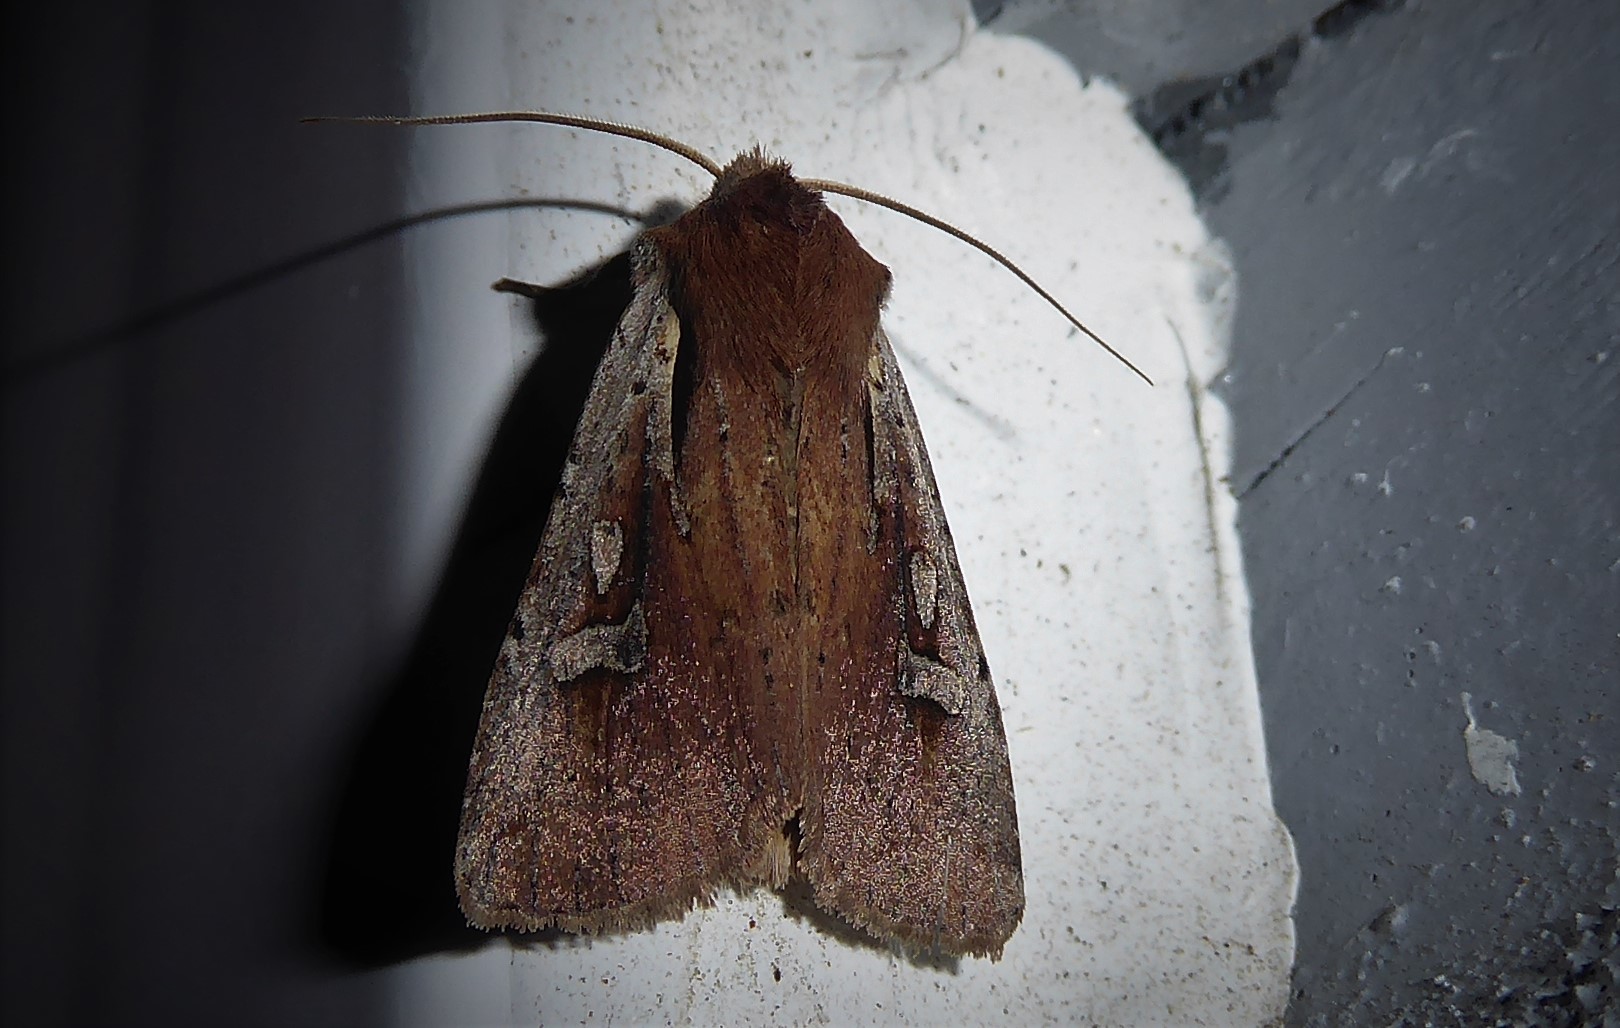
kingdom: Animalia
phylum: Arthropoda
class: Insecta
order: Lepidoptera
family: Noctuidae
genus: Ichneutica
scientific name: Ichneutica atristriga
